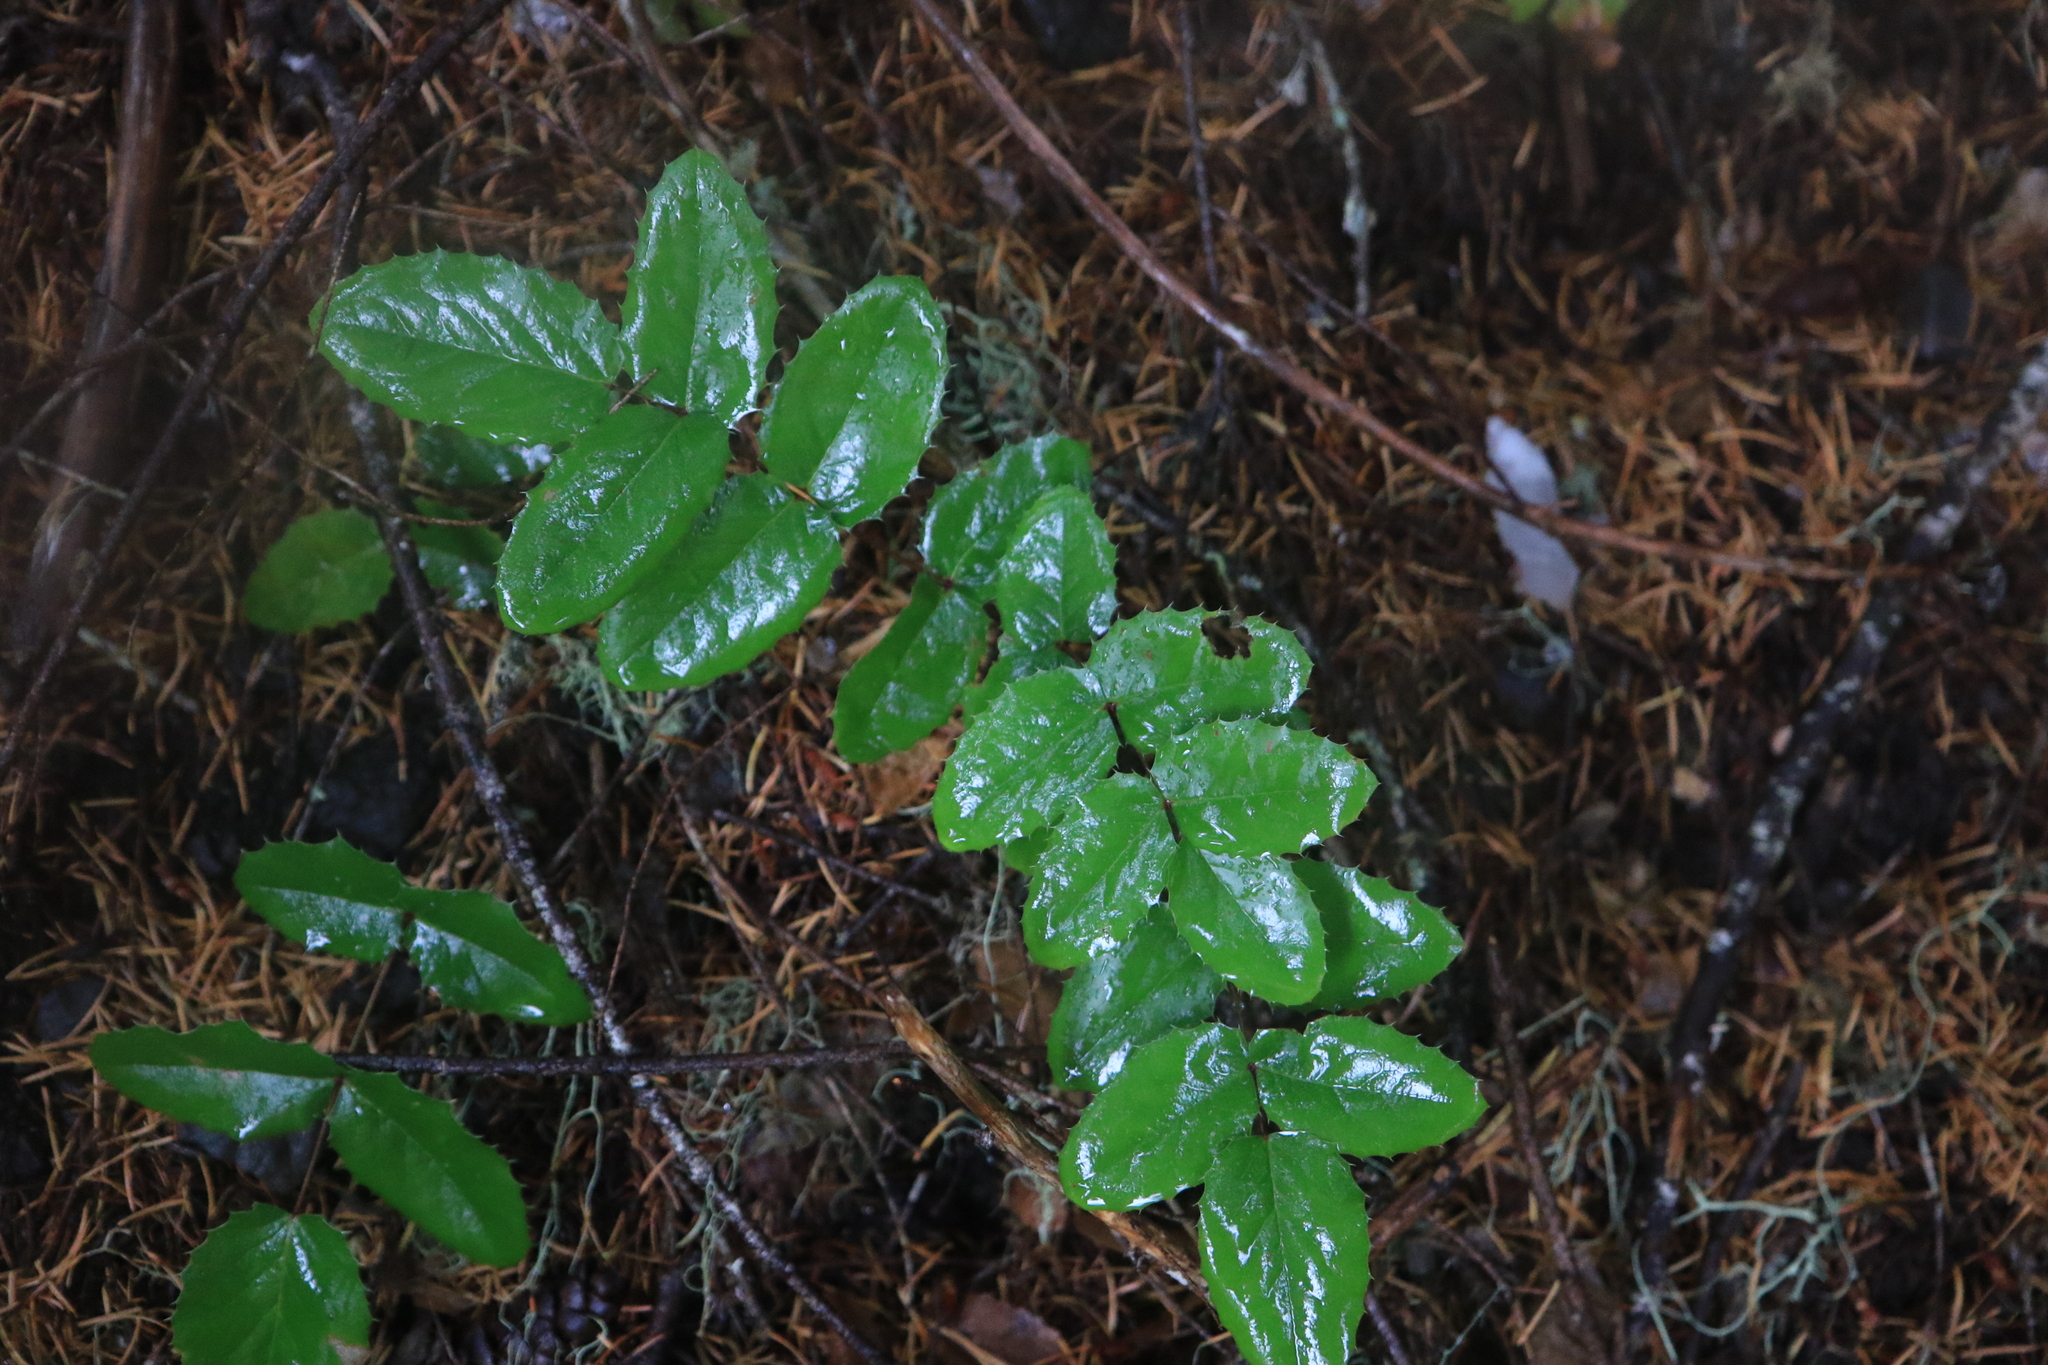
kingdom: Plantae
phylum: Tracheophyta
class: Magnoliopsida
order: Ranunculales
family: Berberidaceae
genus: Mahonia
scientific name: Mahonia repens
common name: Creeping oregon-grape
